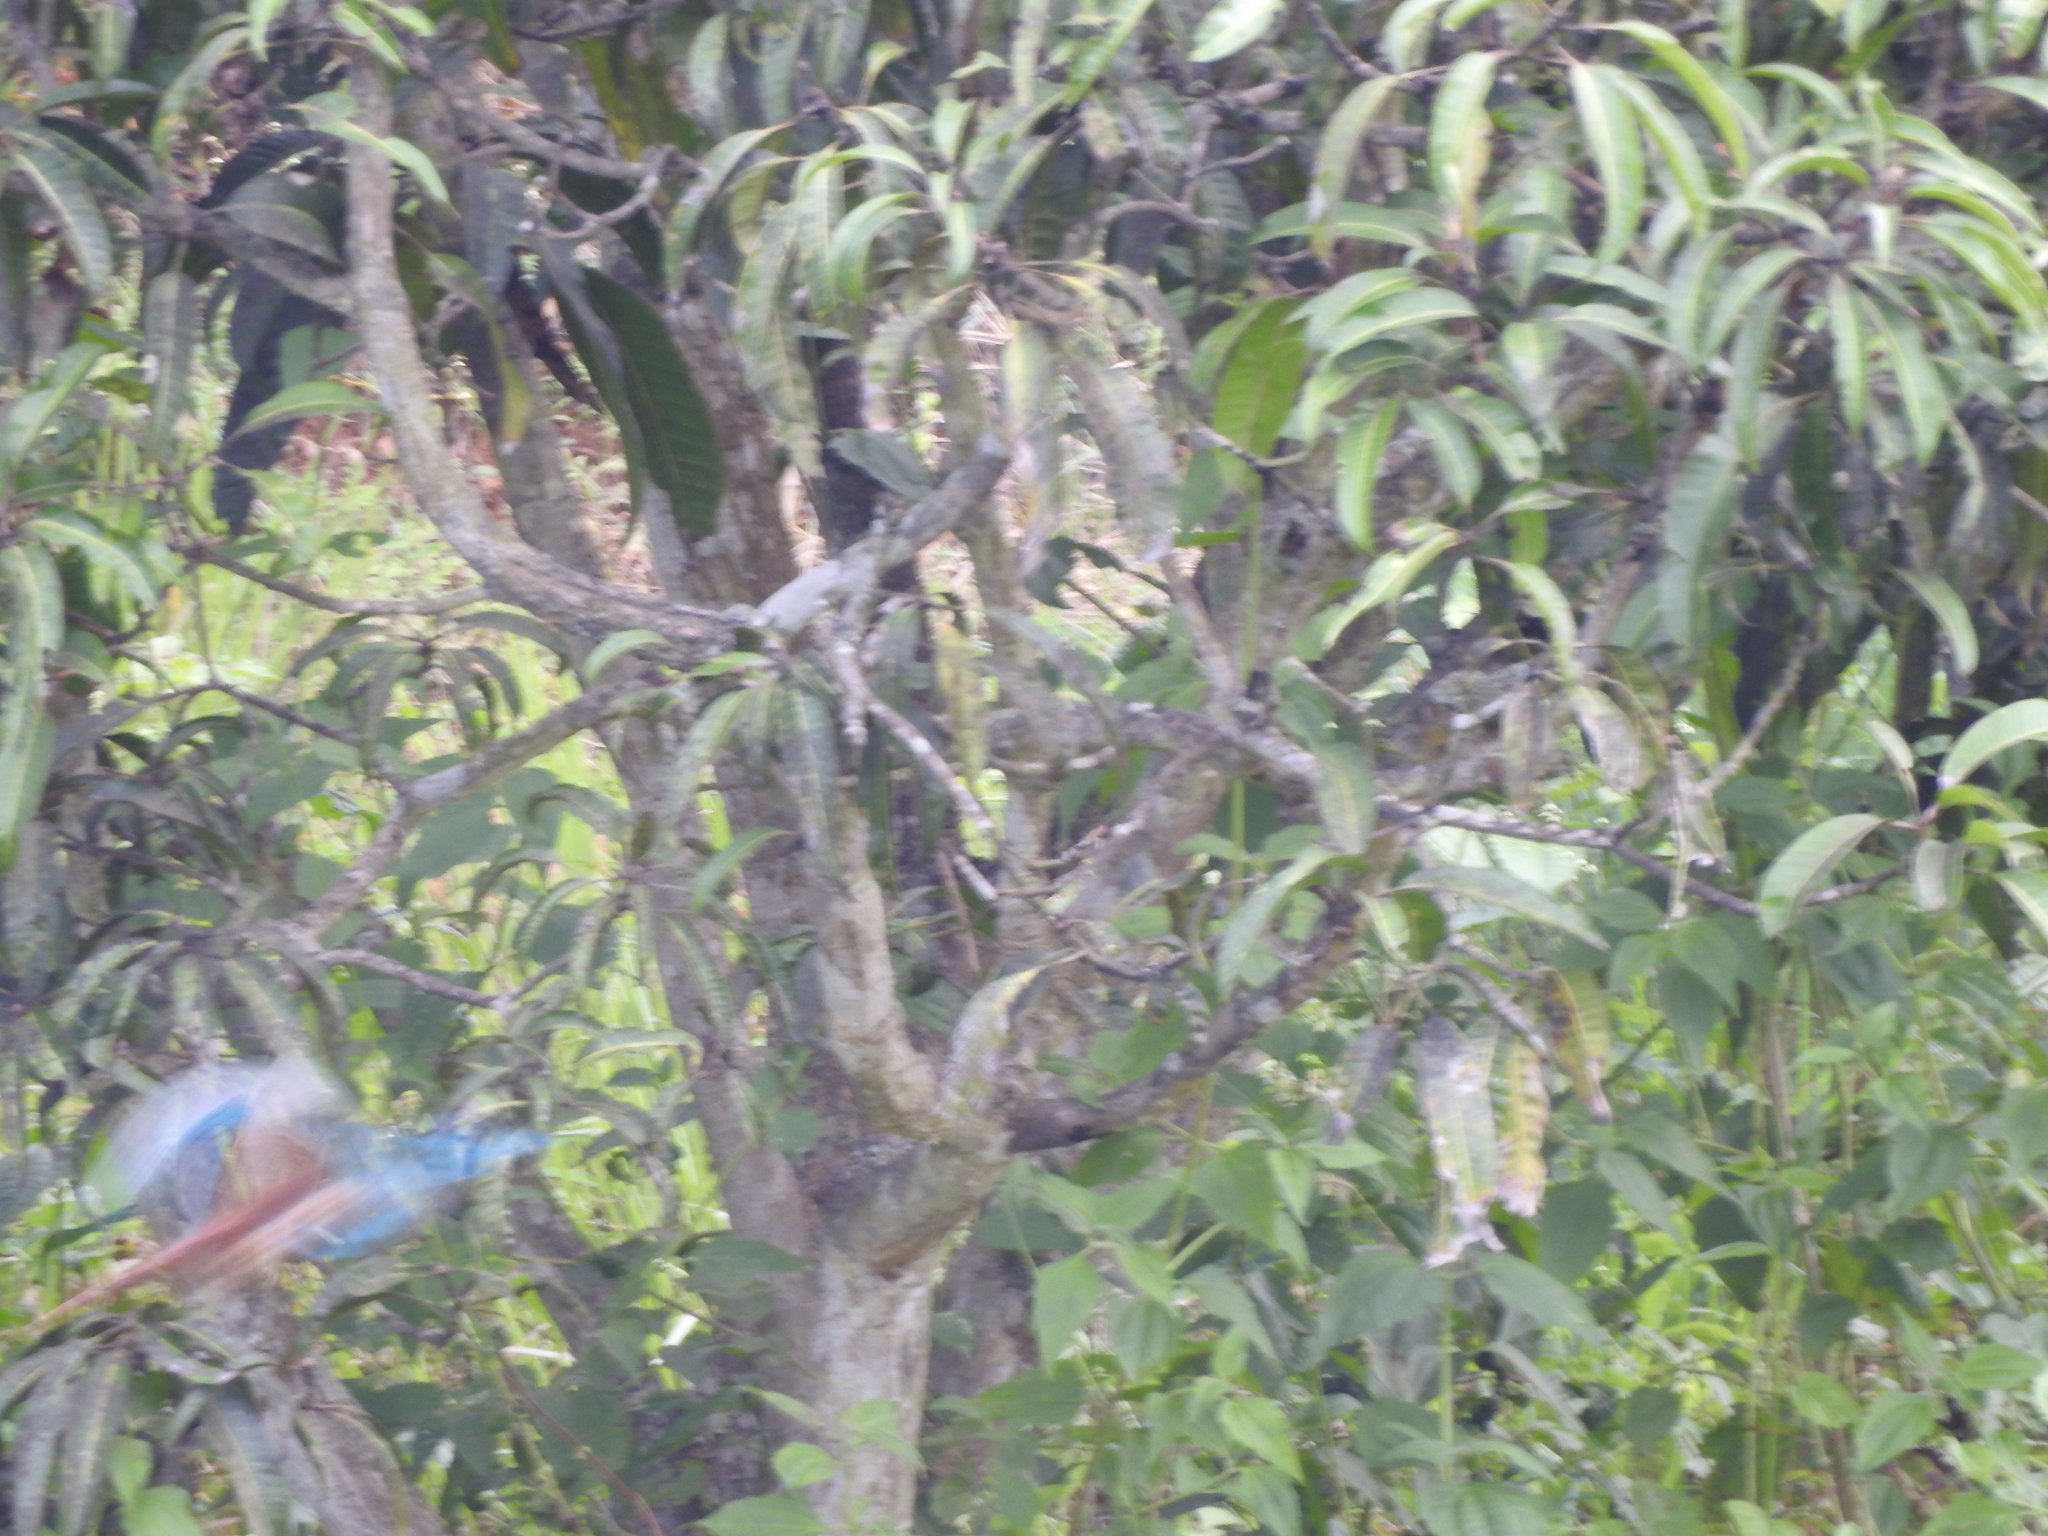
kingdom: Animalia
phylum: Chordata
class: Aves
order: Coraciiformes
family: Alcedinidae
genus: Halcyon
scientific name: Halcyon smyrnensis
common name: White-throated kingfisher
